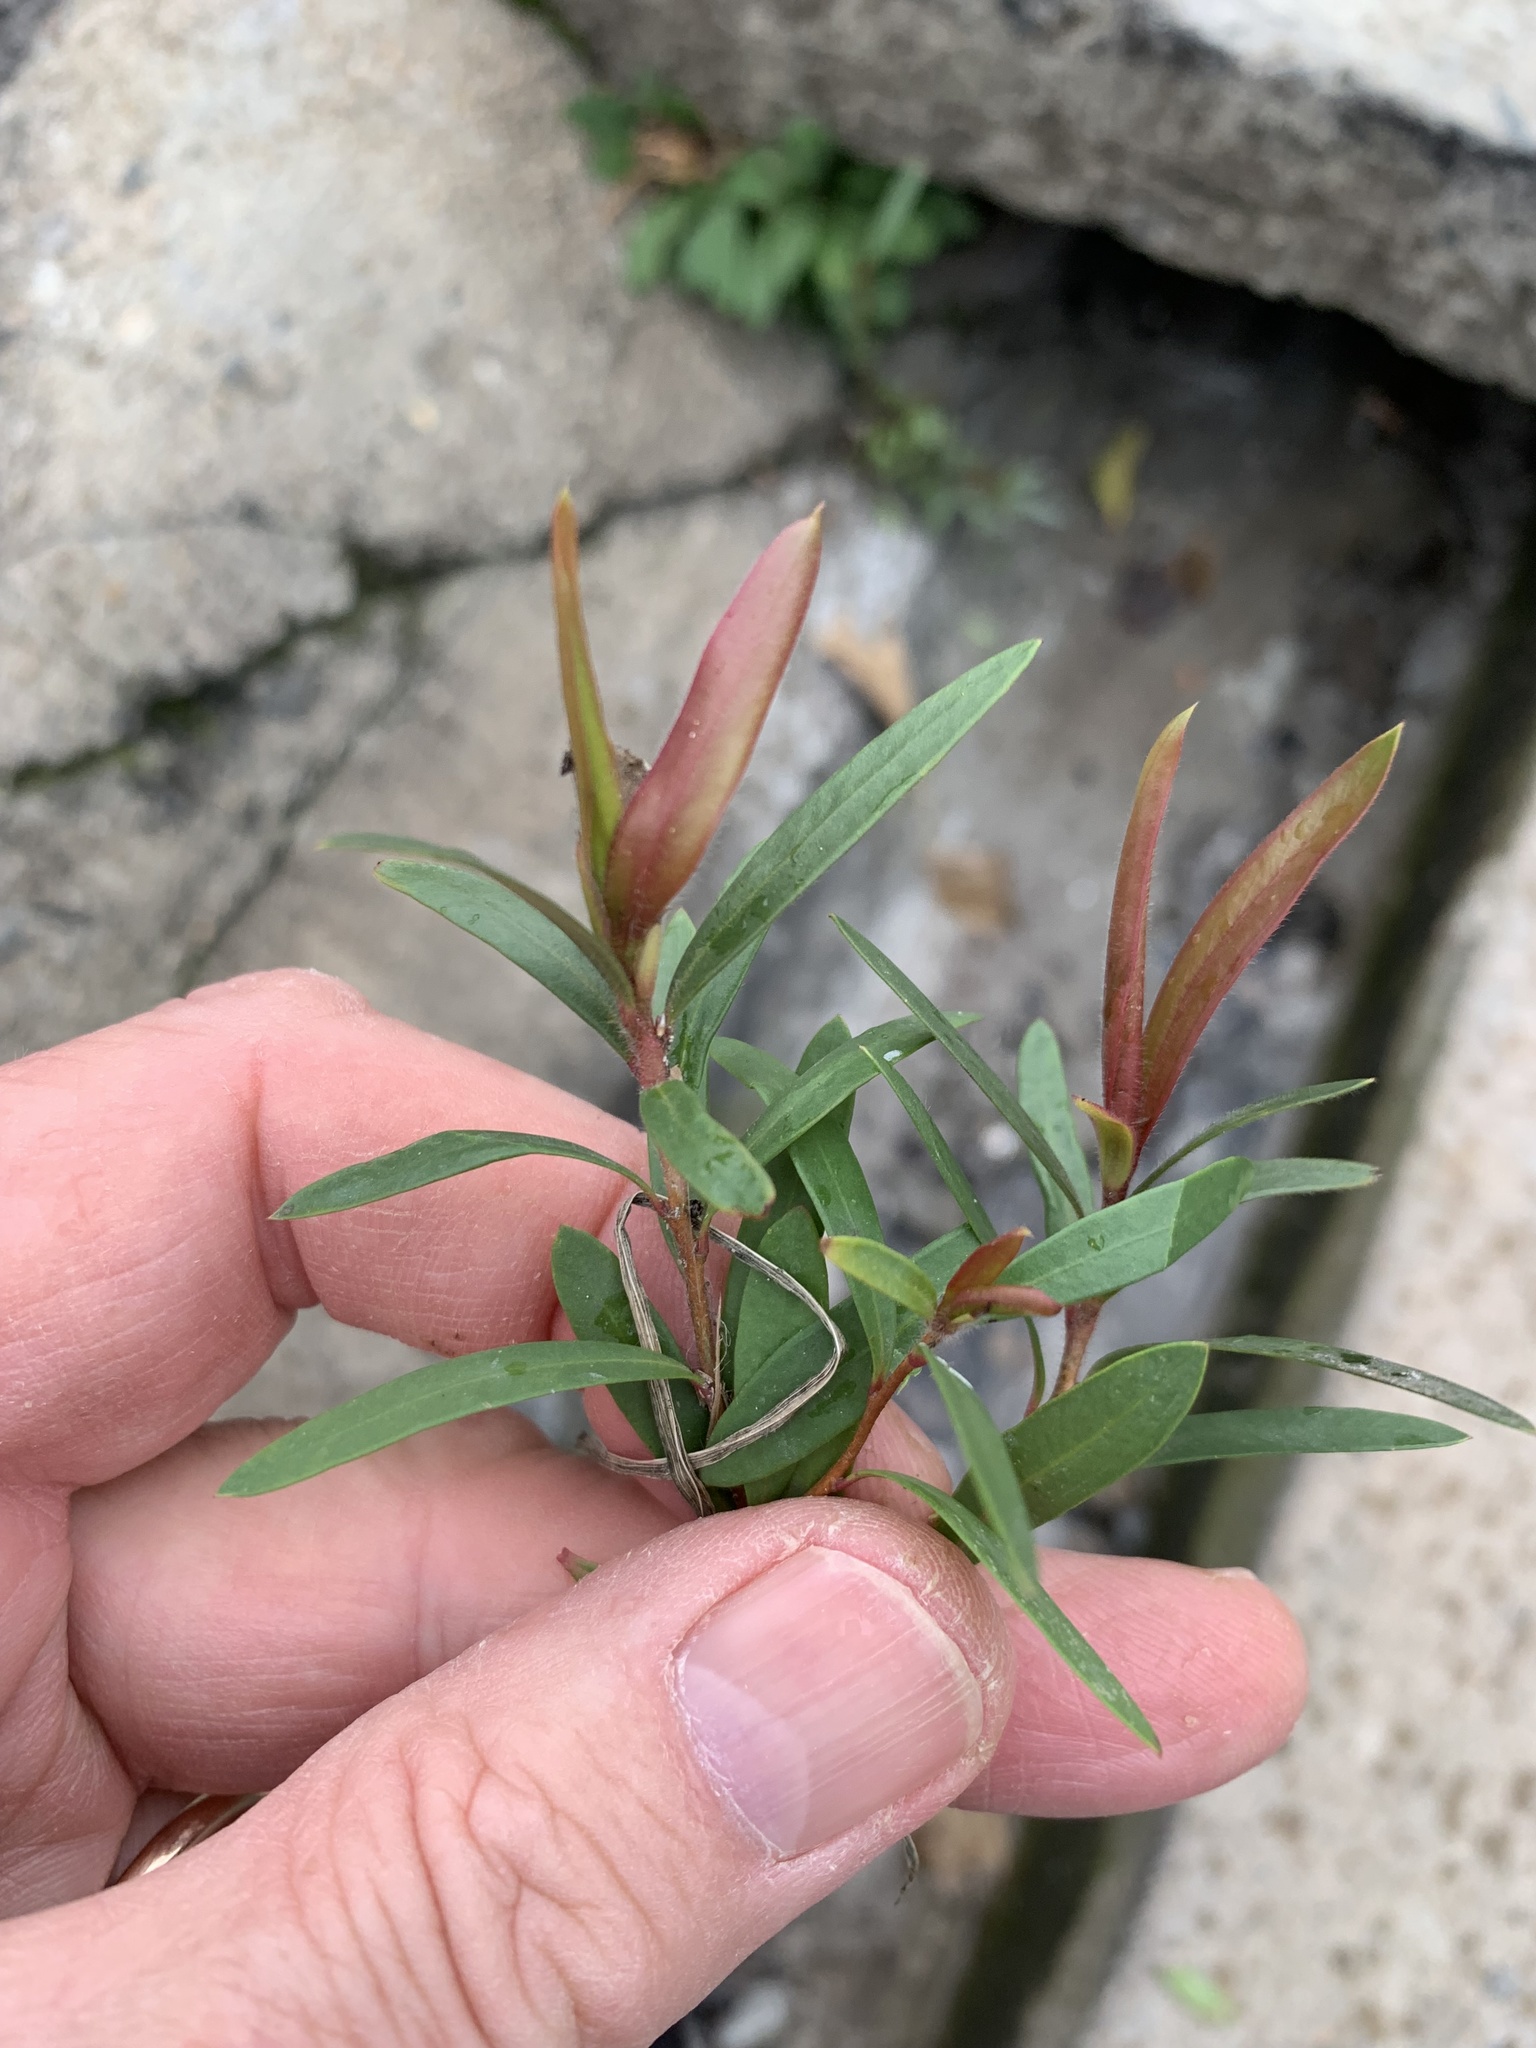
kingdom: Plantae
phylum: Tracheophyta
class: Magnoliopsida
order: Myrtales
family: Myrtaceae
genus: Callistemon
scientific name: Callistemon viminalis
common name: Drooping bottlebrush
